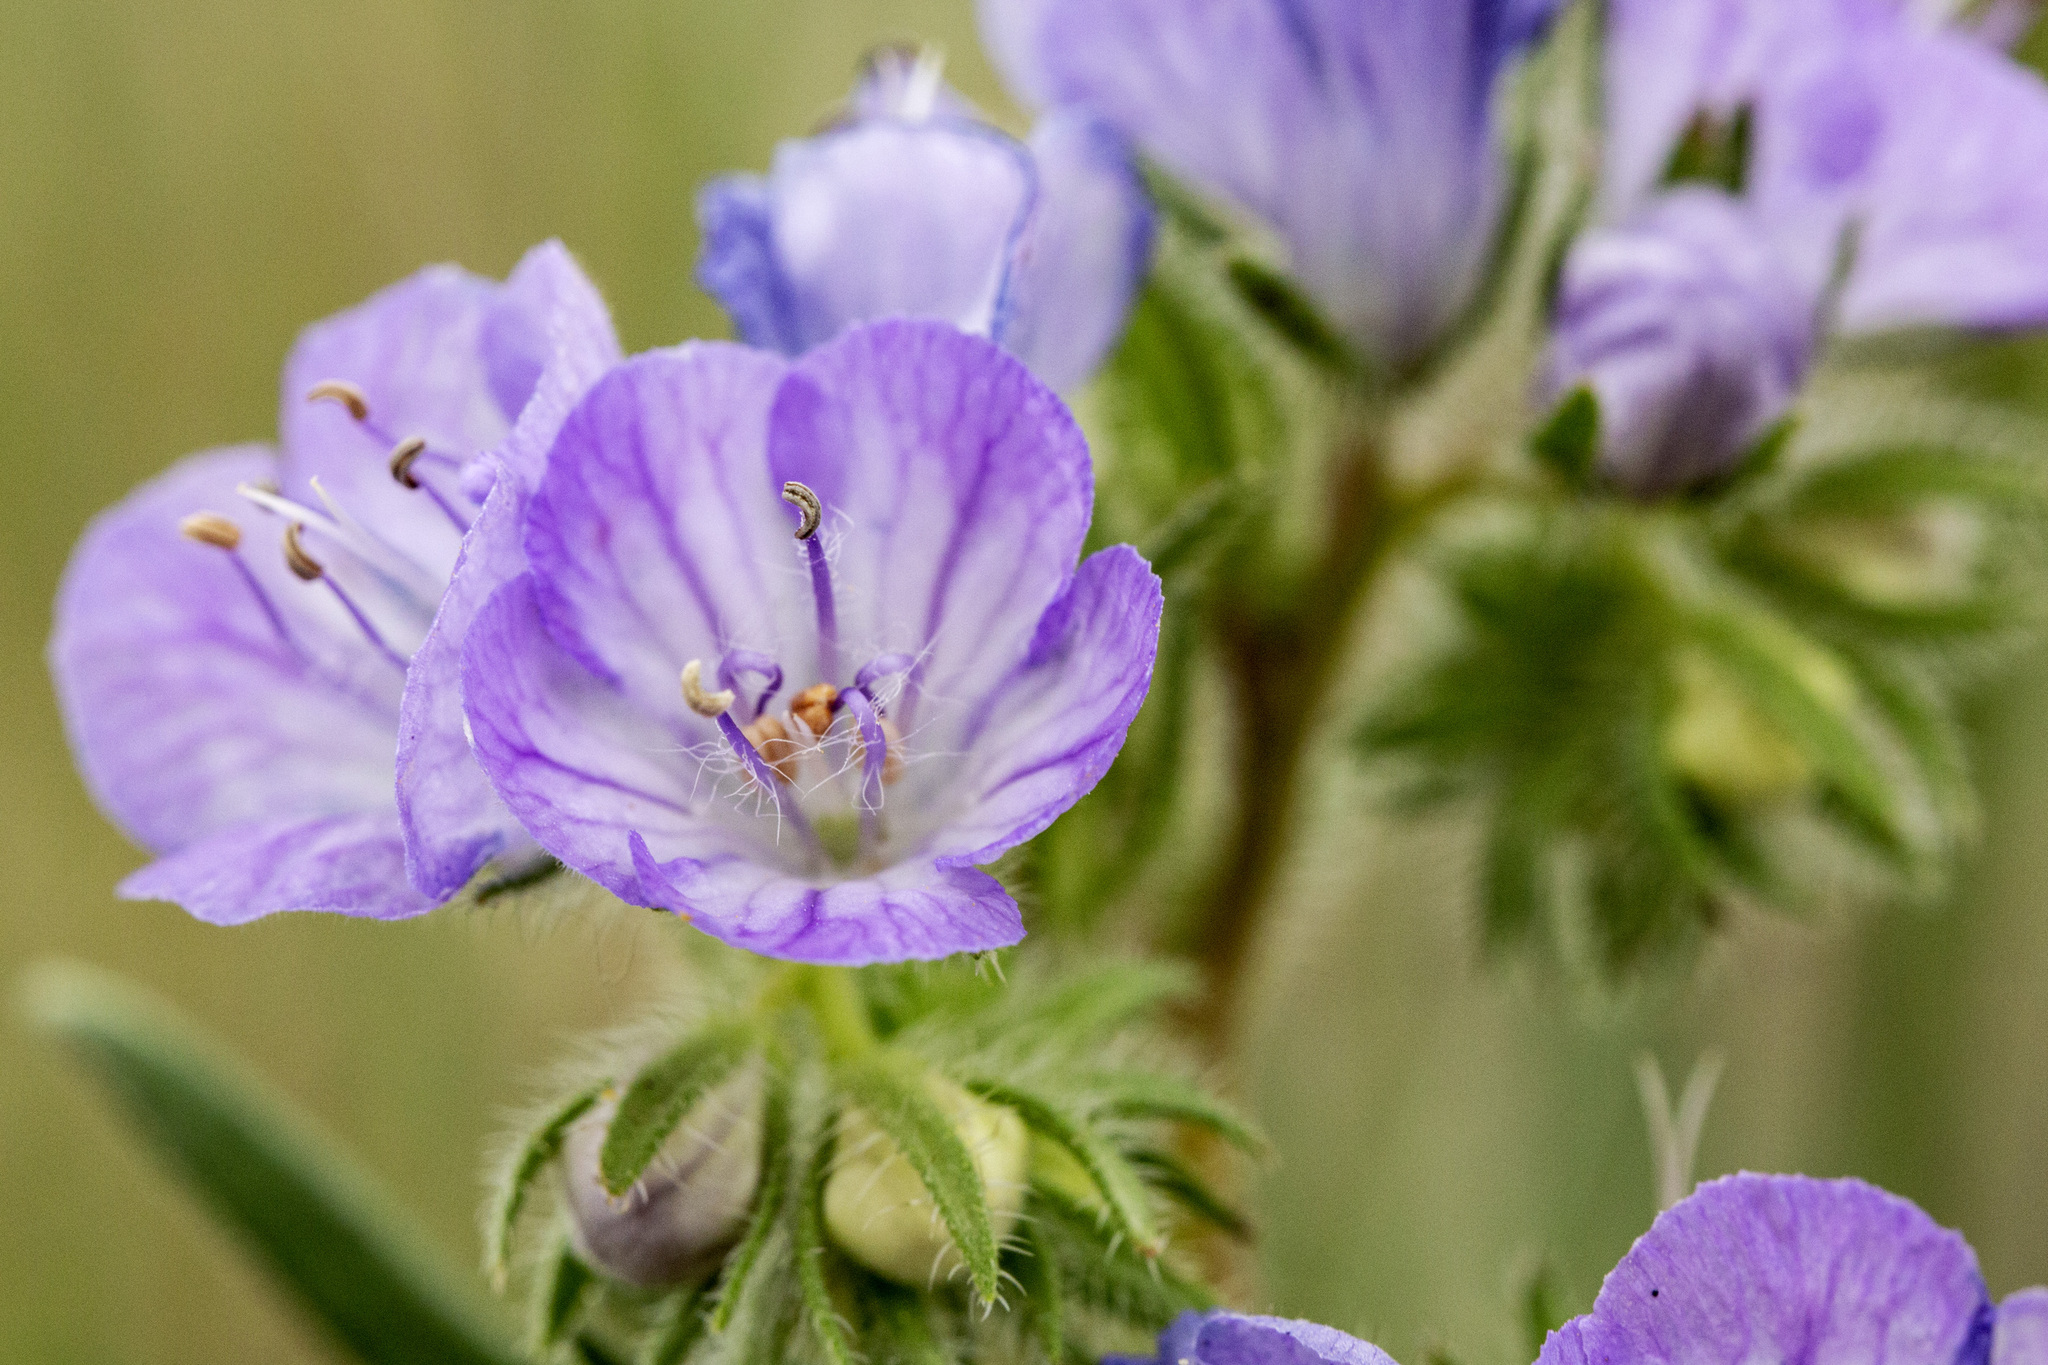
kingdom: Plantae
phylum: Tracheophyta
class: Magnoliopsida
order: Boraginales
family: Hydrophyllaceae
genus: Phacelia
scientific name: Phacelia linearis
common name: Linear-leaved phacelia
